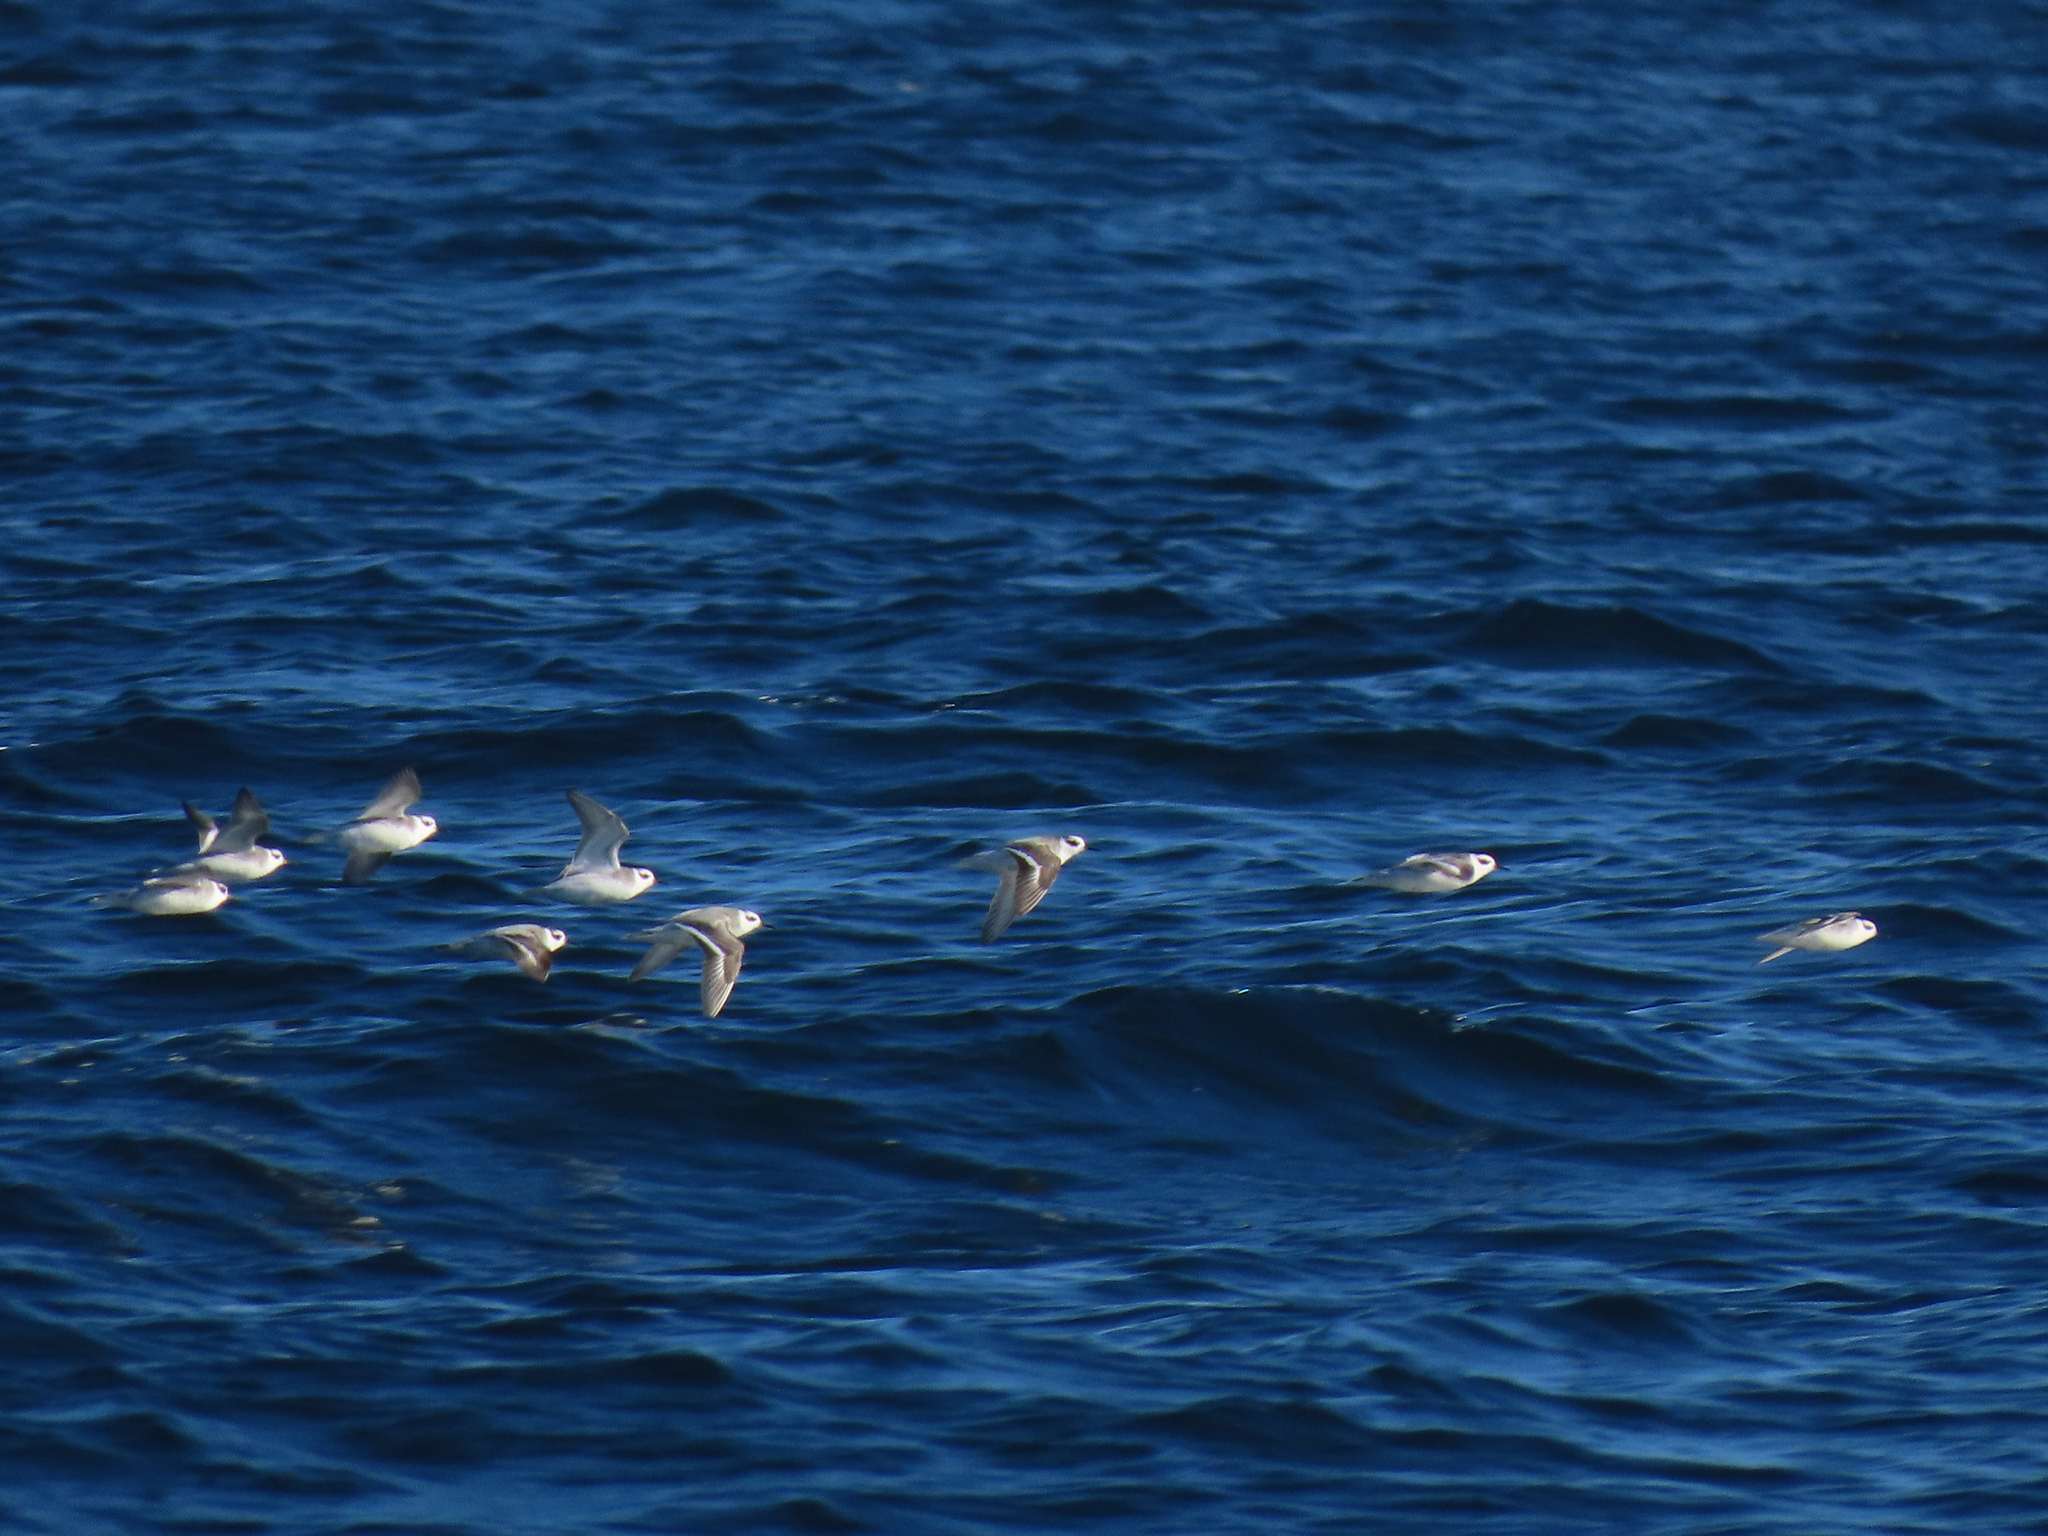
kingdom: Animalia
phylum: Chordata
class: Aves
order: Charadriiformes
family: Scolopacidae
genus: Phalaropus
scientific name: Phalaropus fulicarius
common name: Red phalarope
